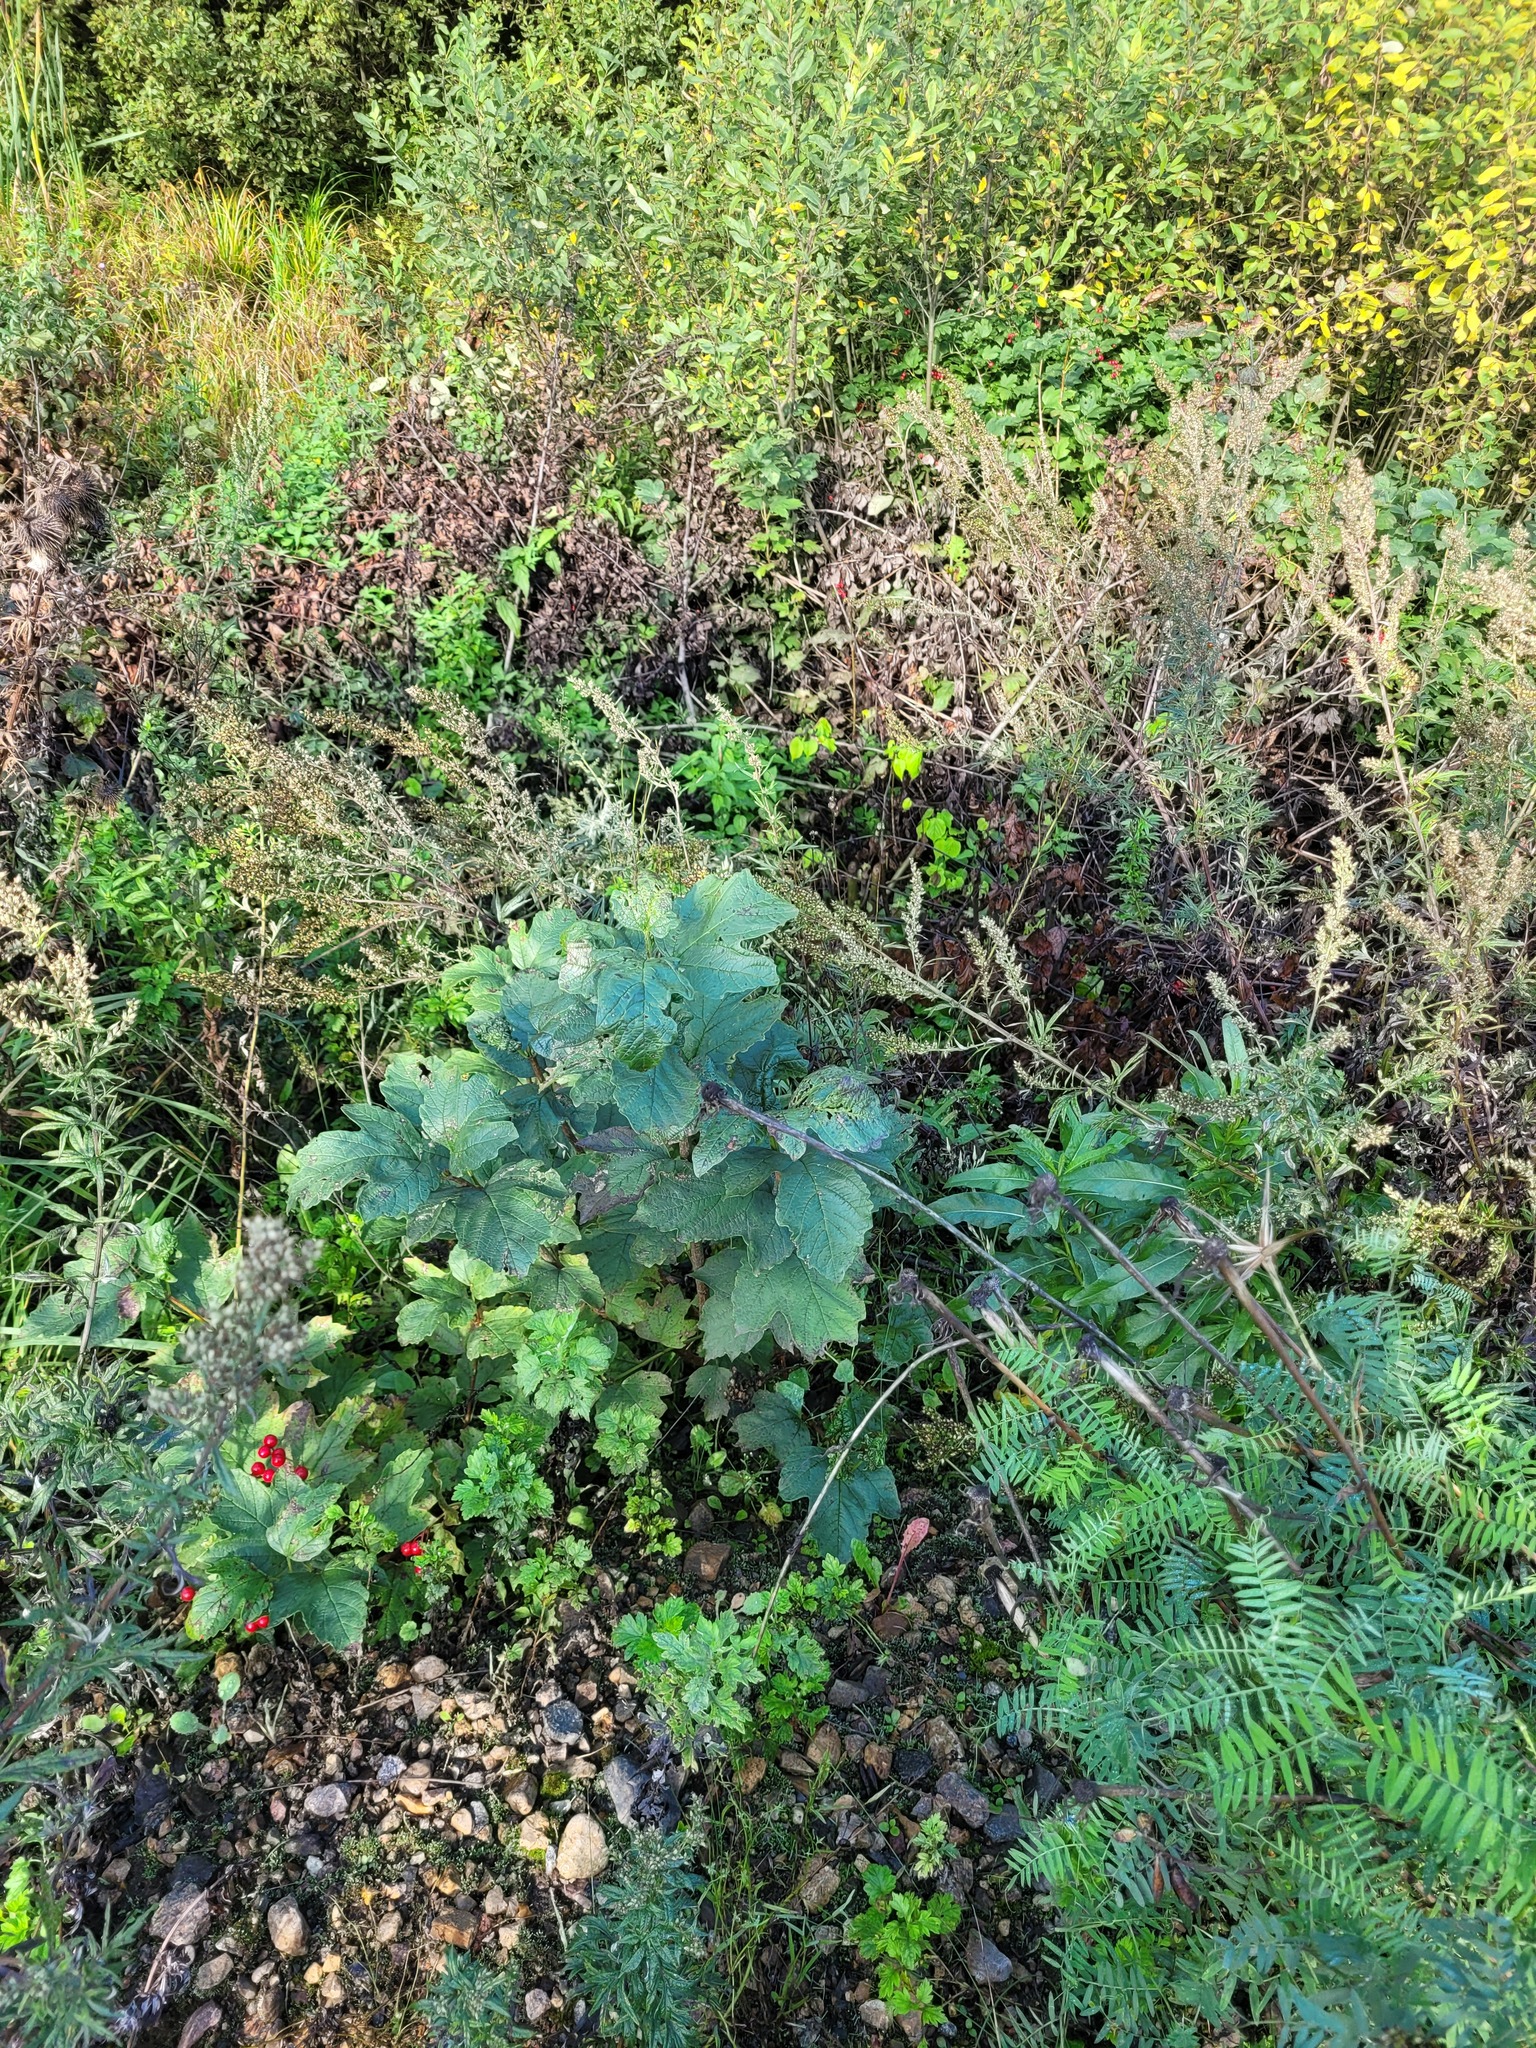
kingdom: Plantae
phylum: Tracheophyta
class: Magnoliopsida
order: Dipsacales
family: Viburnaceae
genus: Viburnum
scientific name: Viburnum opulus
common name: Guelder-rose
